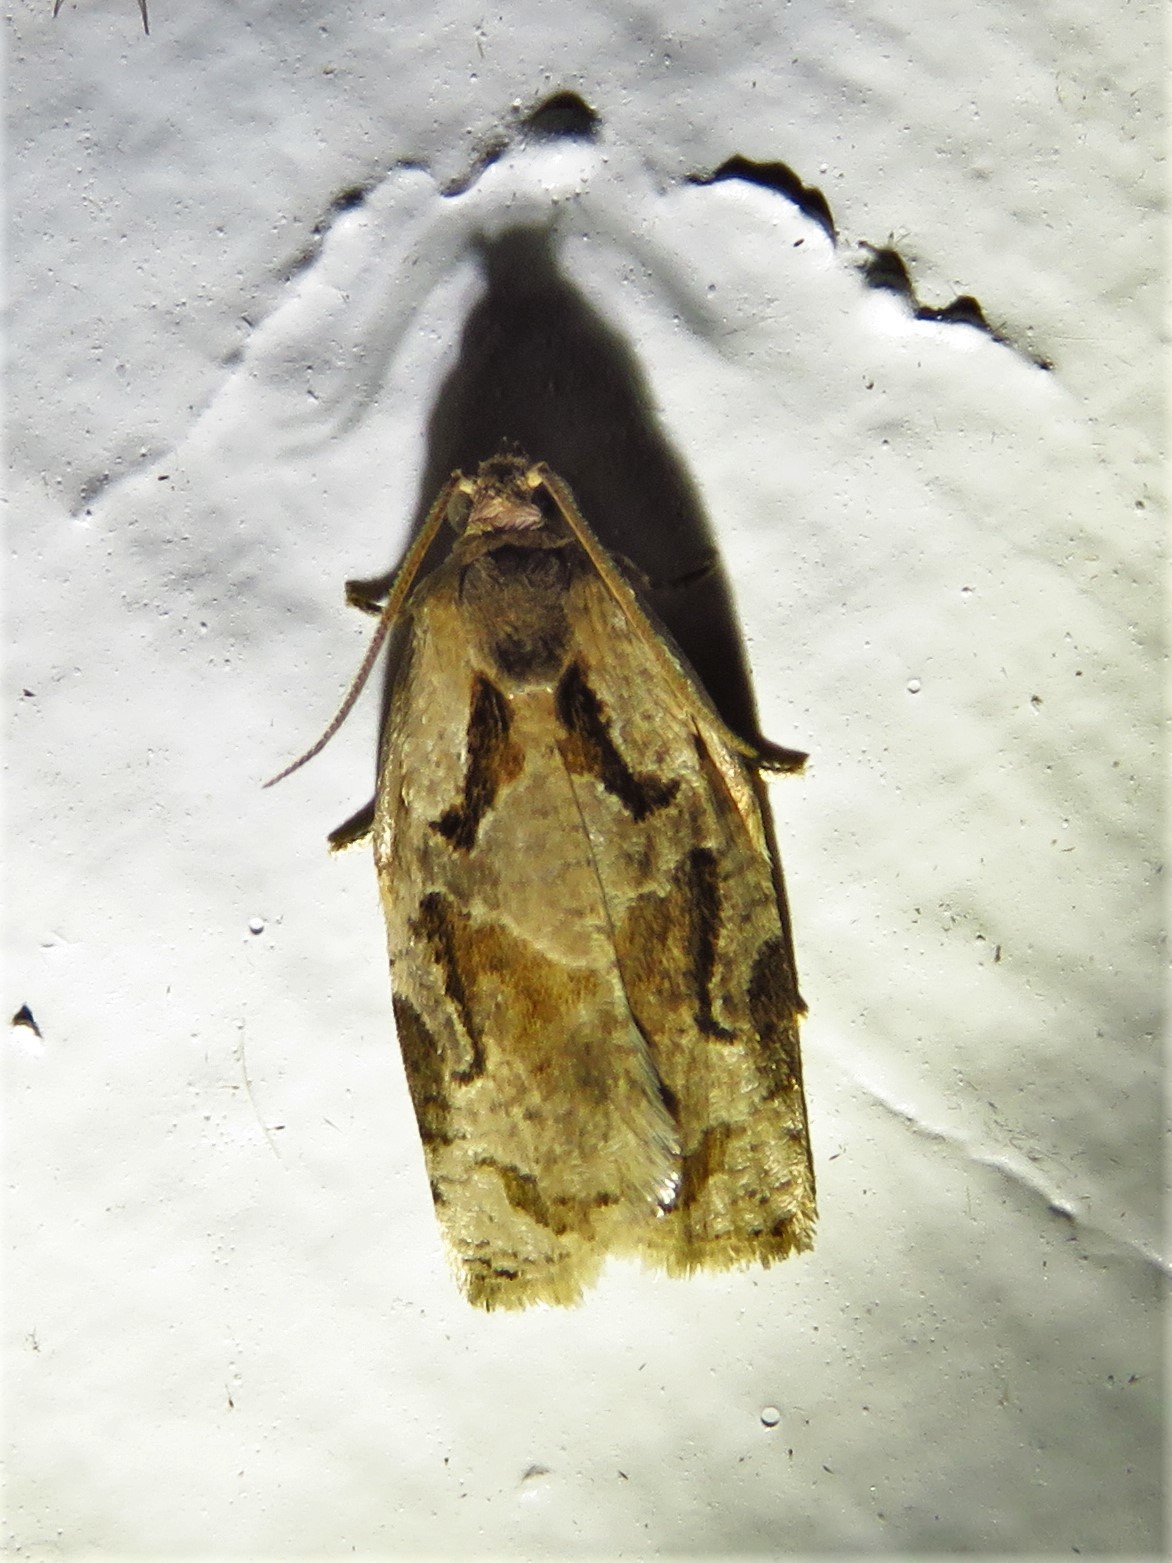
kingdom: Animalia
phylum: Arthropoda
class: Insecta
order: Lepidoptera
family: Tortricidae
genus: Archips
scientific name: Archips grisea
